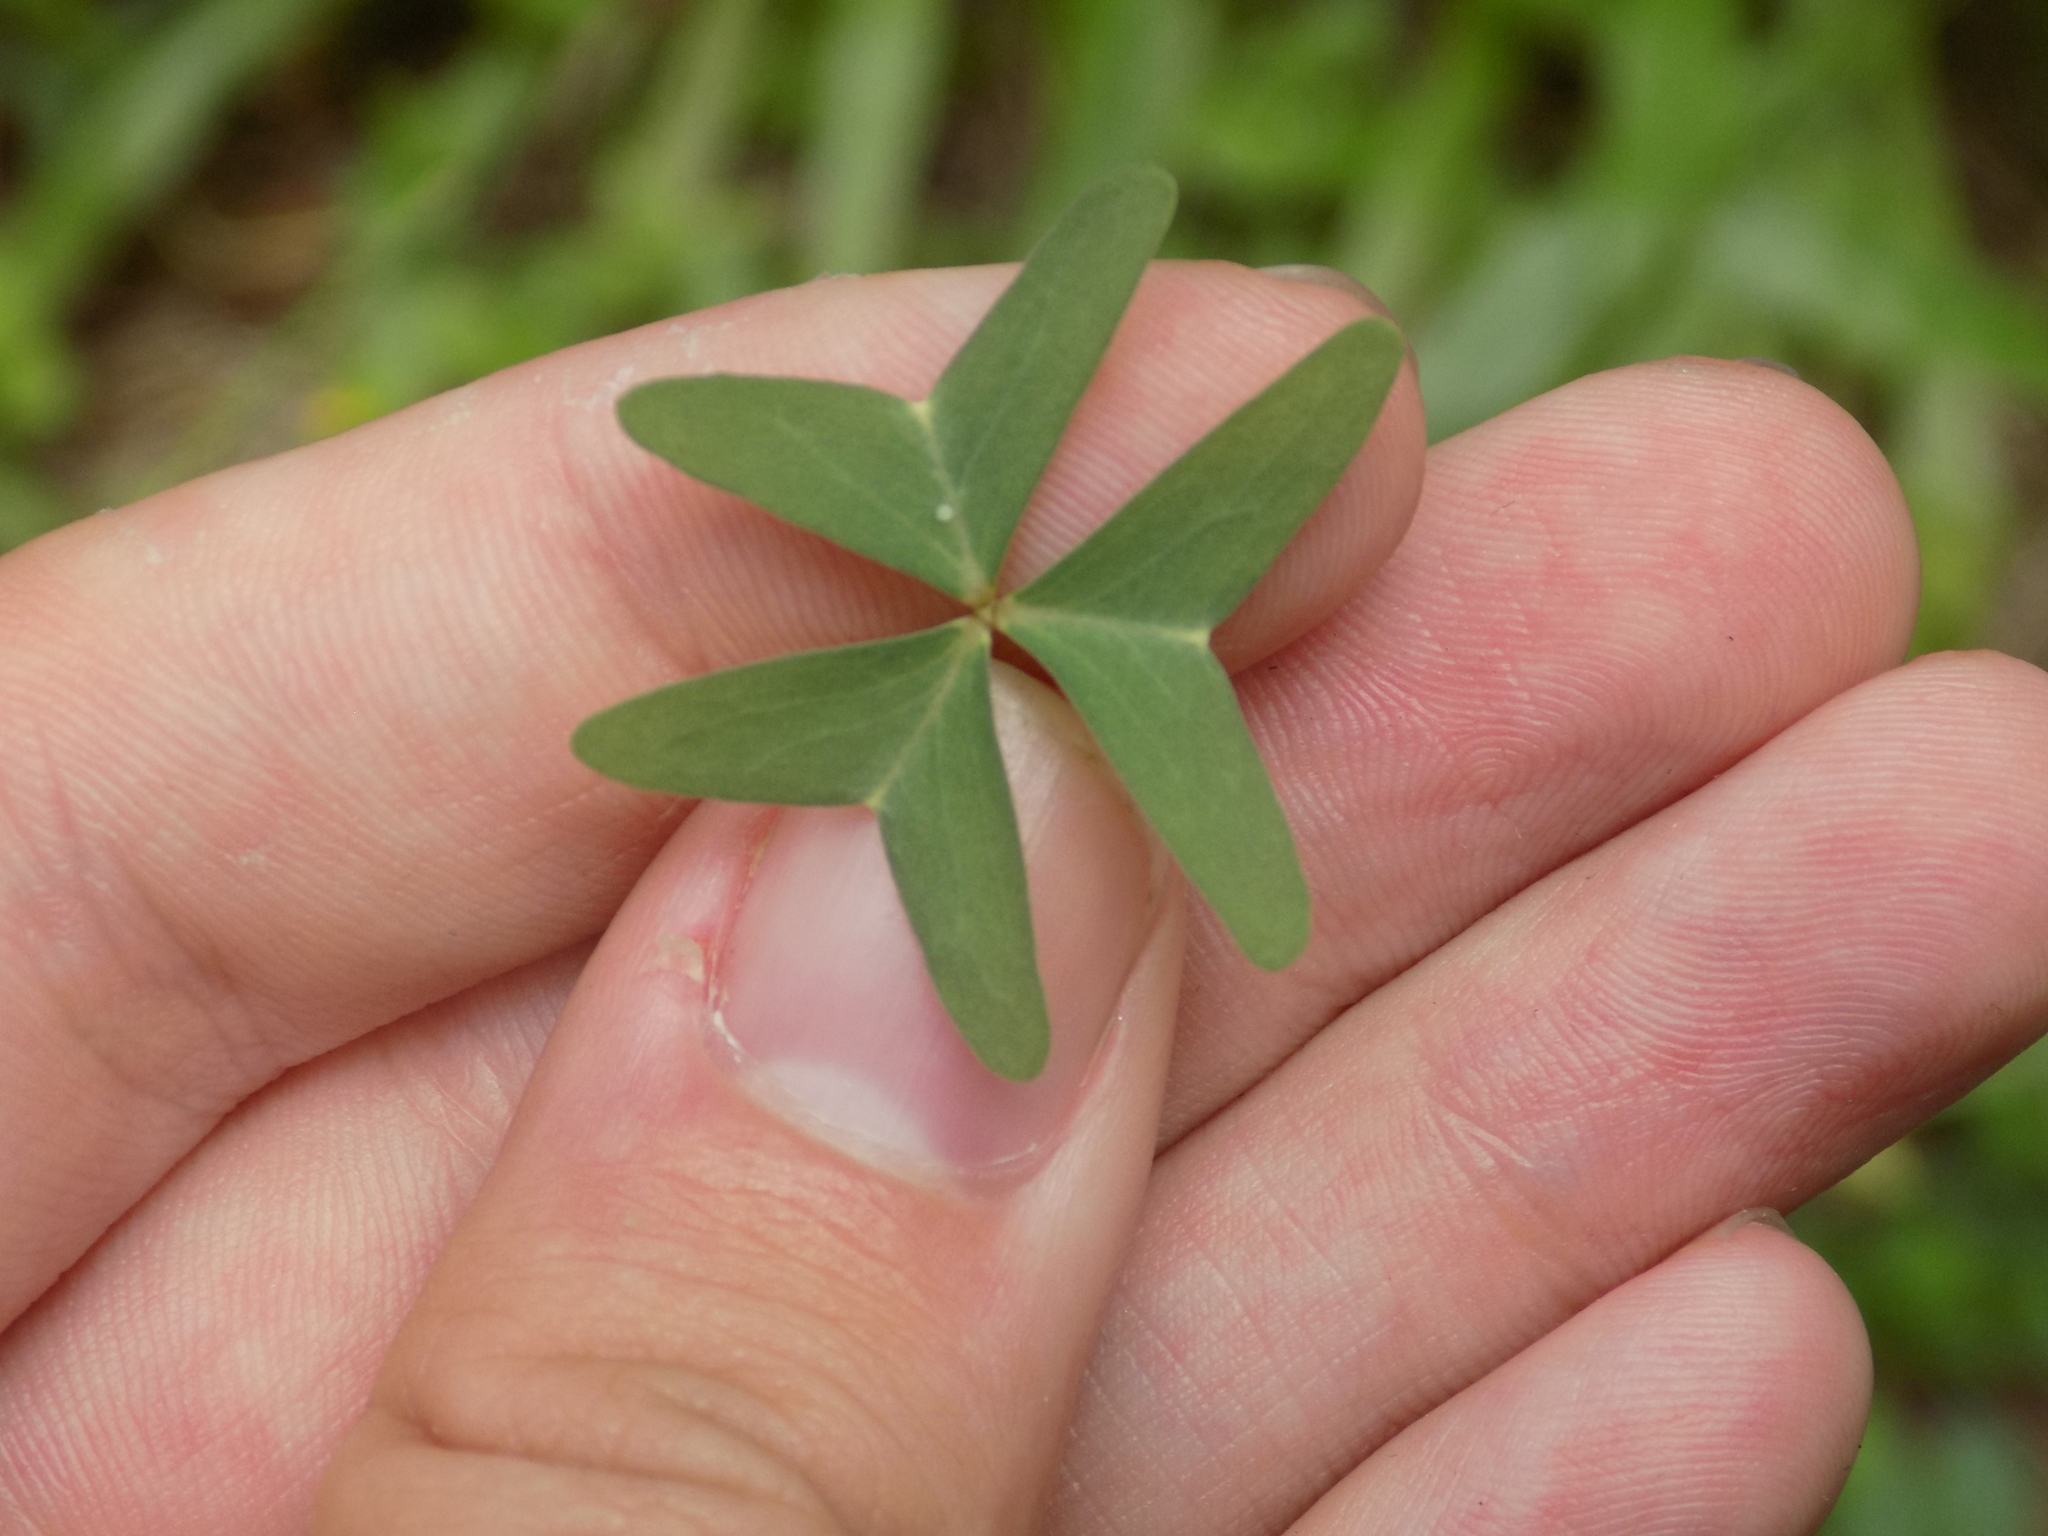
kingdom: Plantae
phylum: Tracheophyta
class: Magnoliopsida
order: Oxalidales
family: Oxalidaceae
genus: Oxalis
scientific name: Oxalis drummondii
